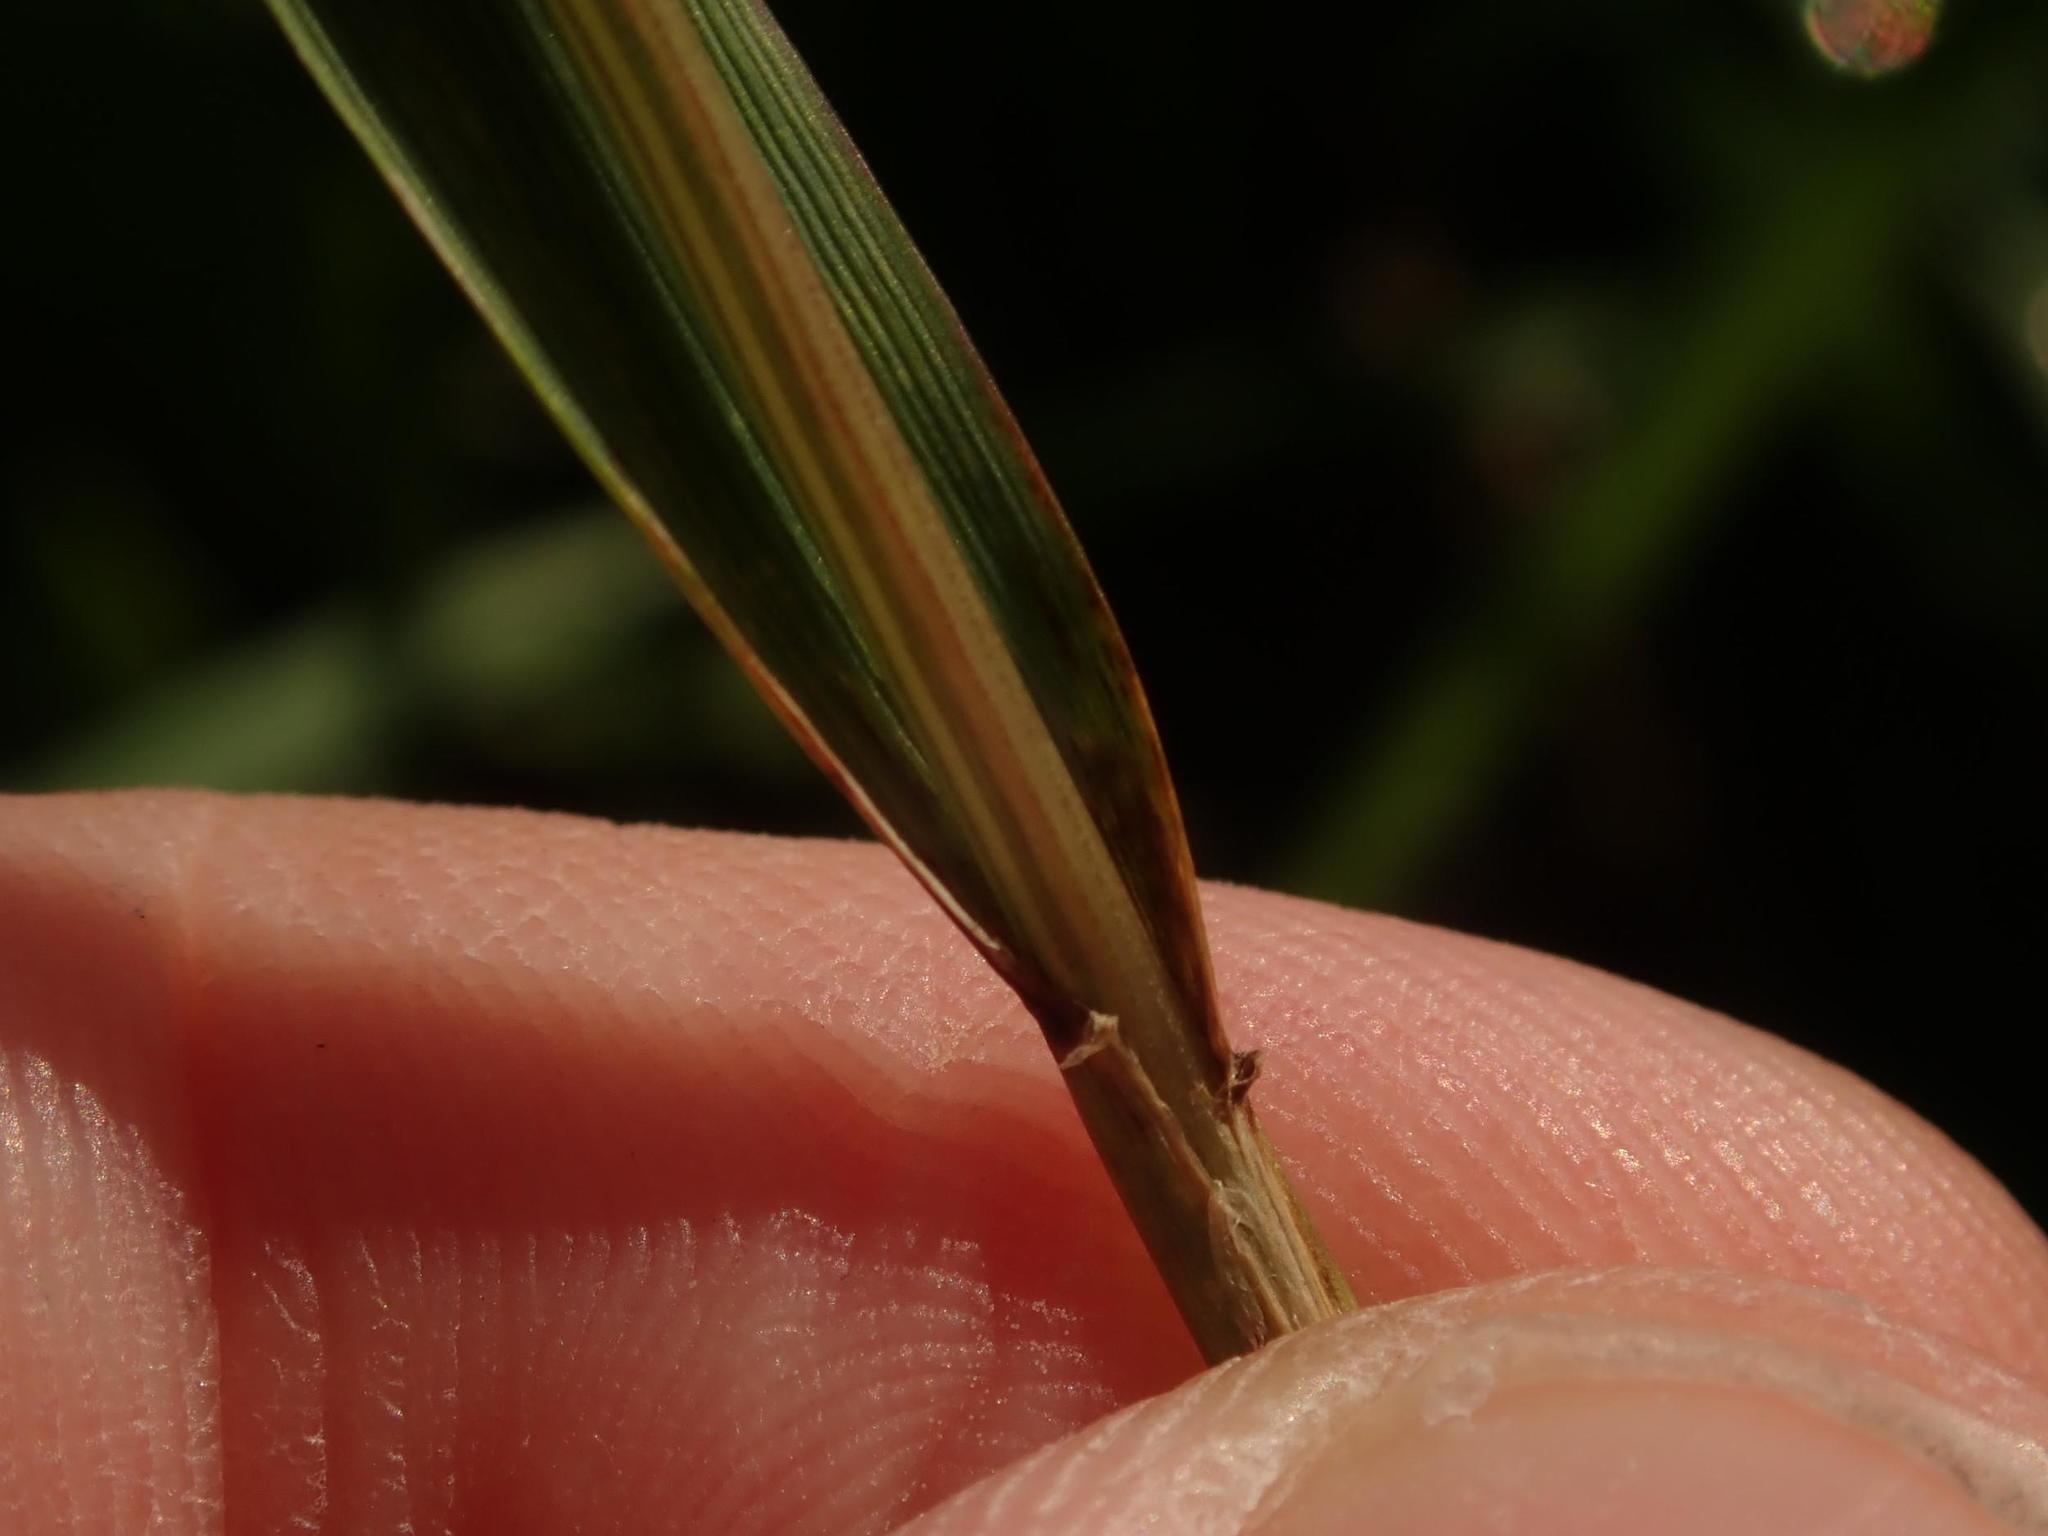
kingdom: Plantae
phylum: Tracheophyta
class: Liliopsida
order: Poales
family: Poaceae
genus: Lolium
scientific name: Lolium perenne
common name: Perennial ryegrass
